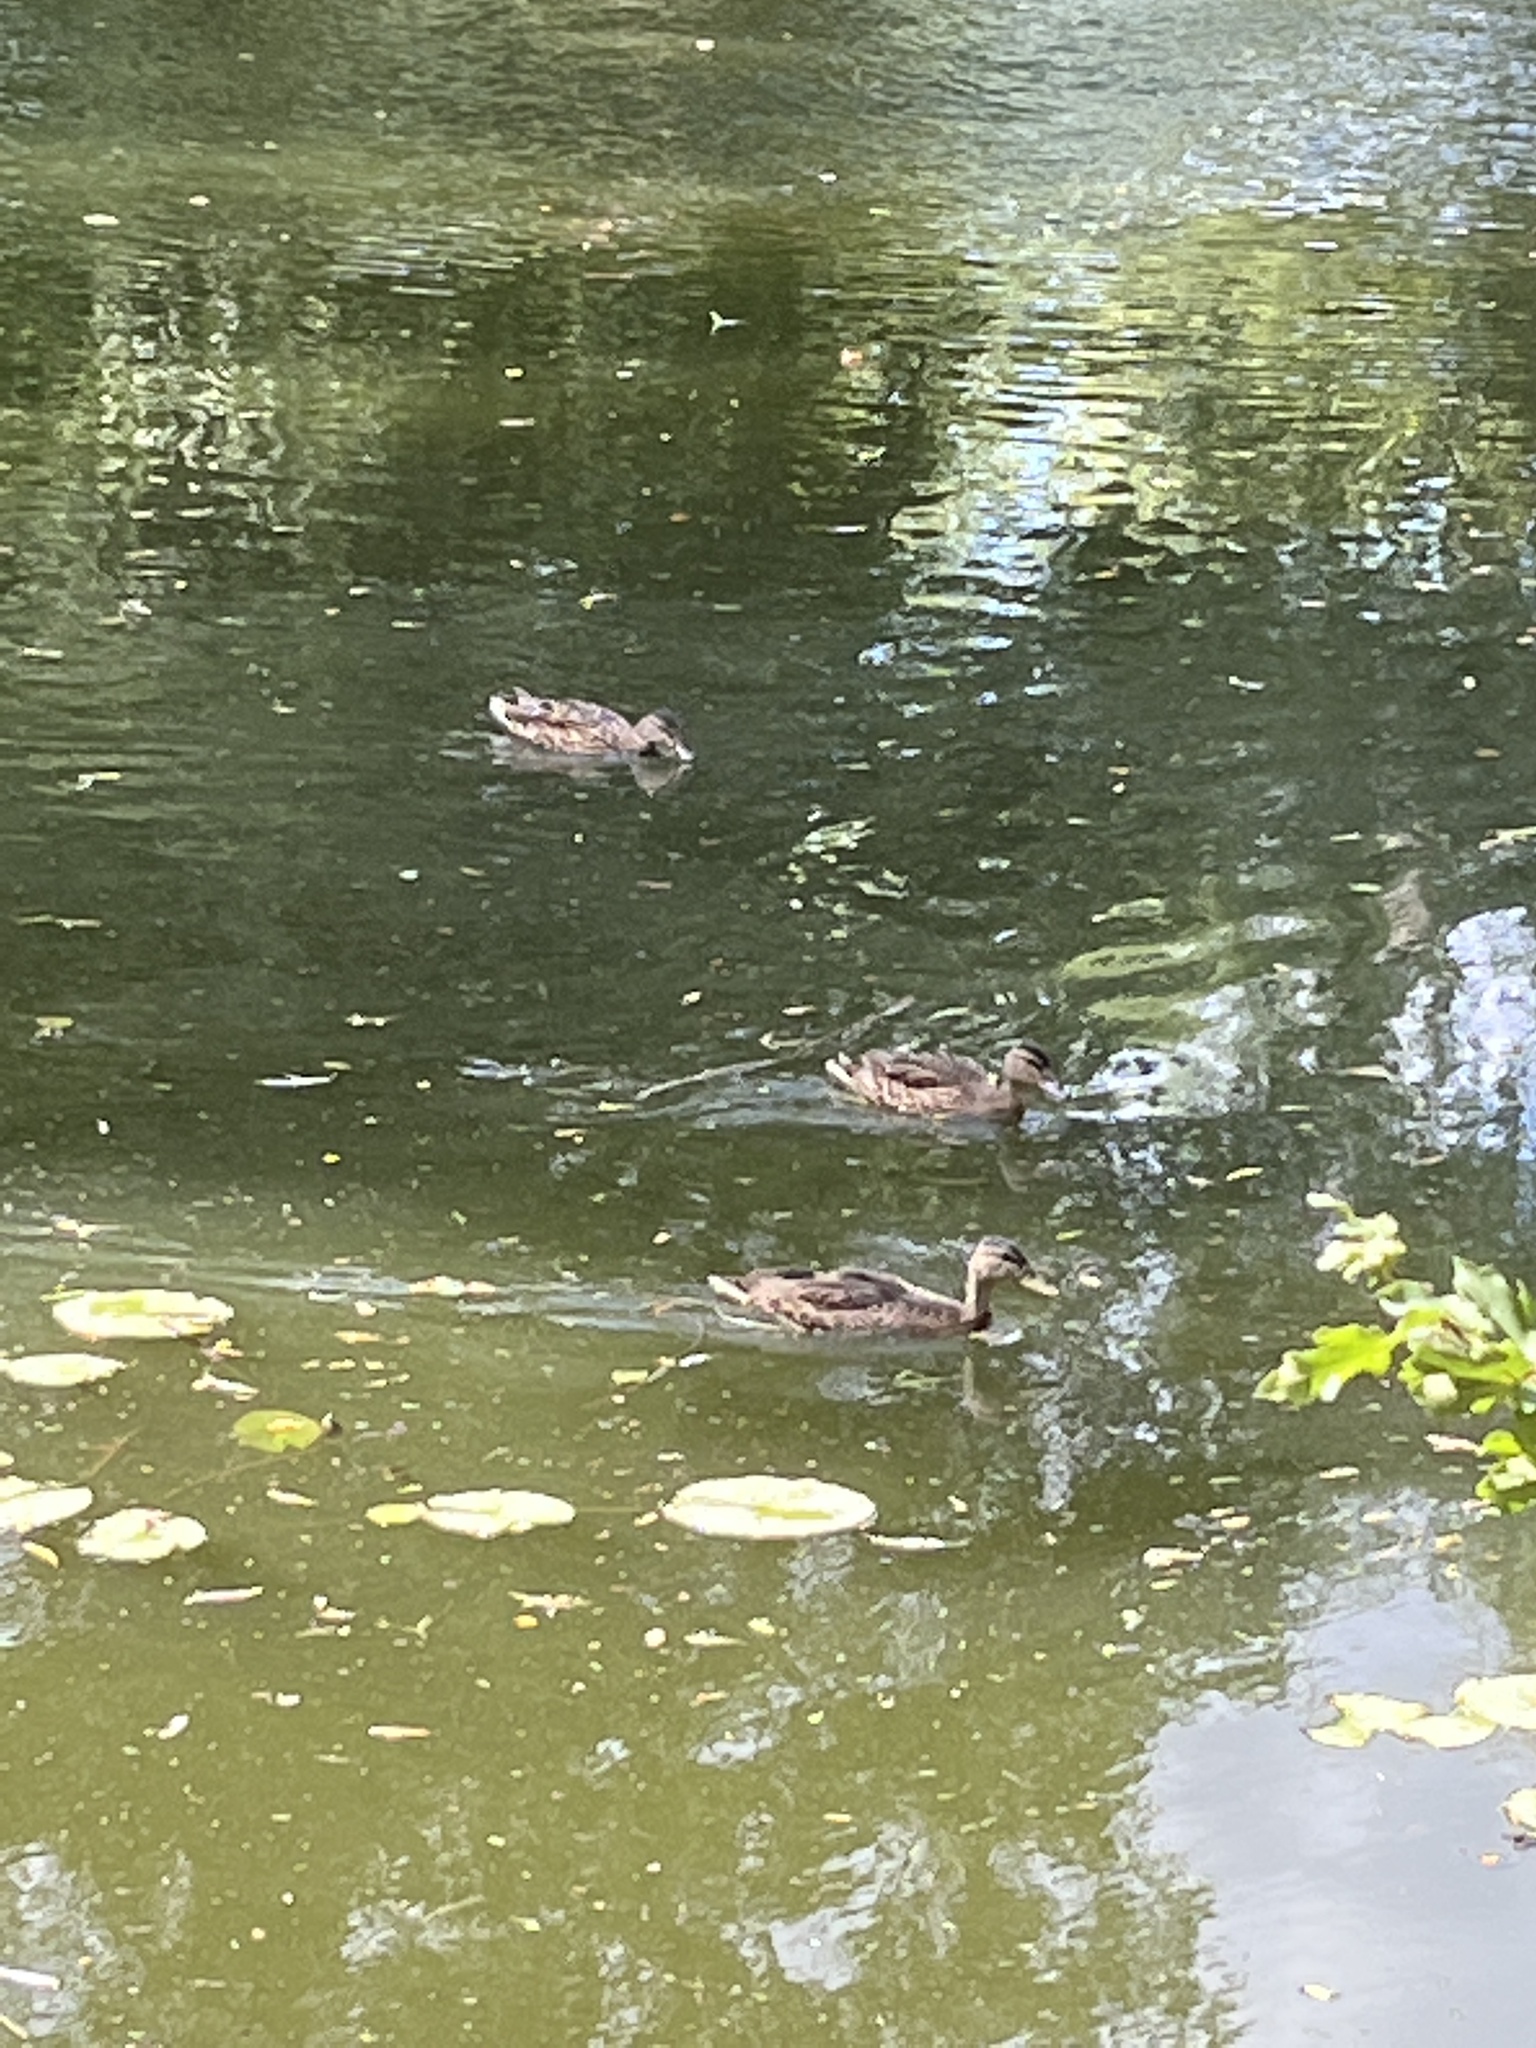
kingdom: Animalia
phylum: Chordata
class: Aves
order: Anseriformes
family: Anatidae
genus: Anas
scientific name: Anas platyrhynchos
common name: Mallard
